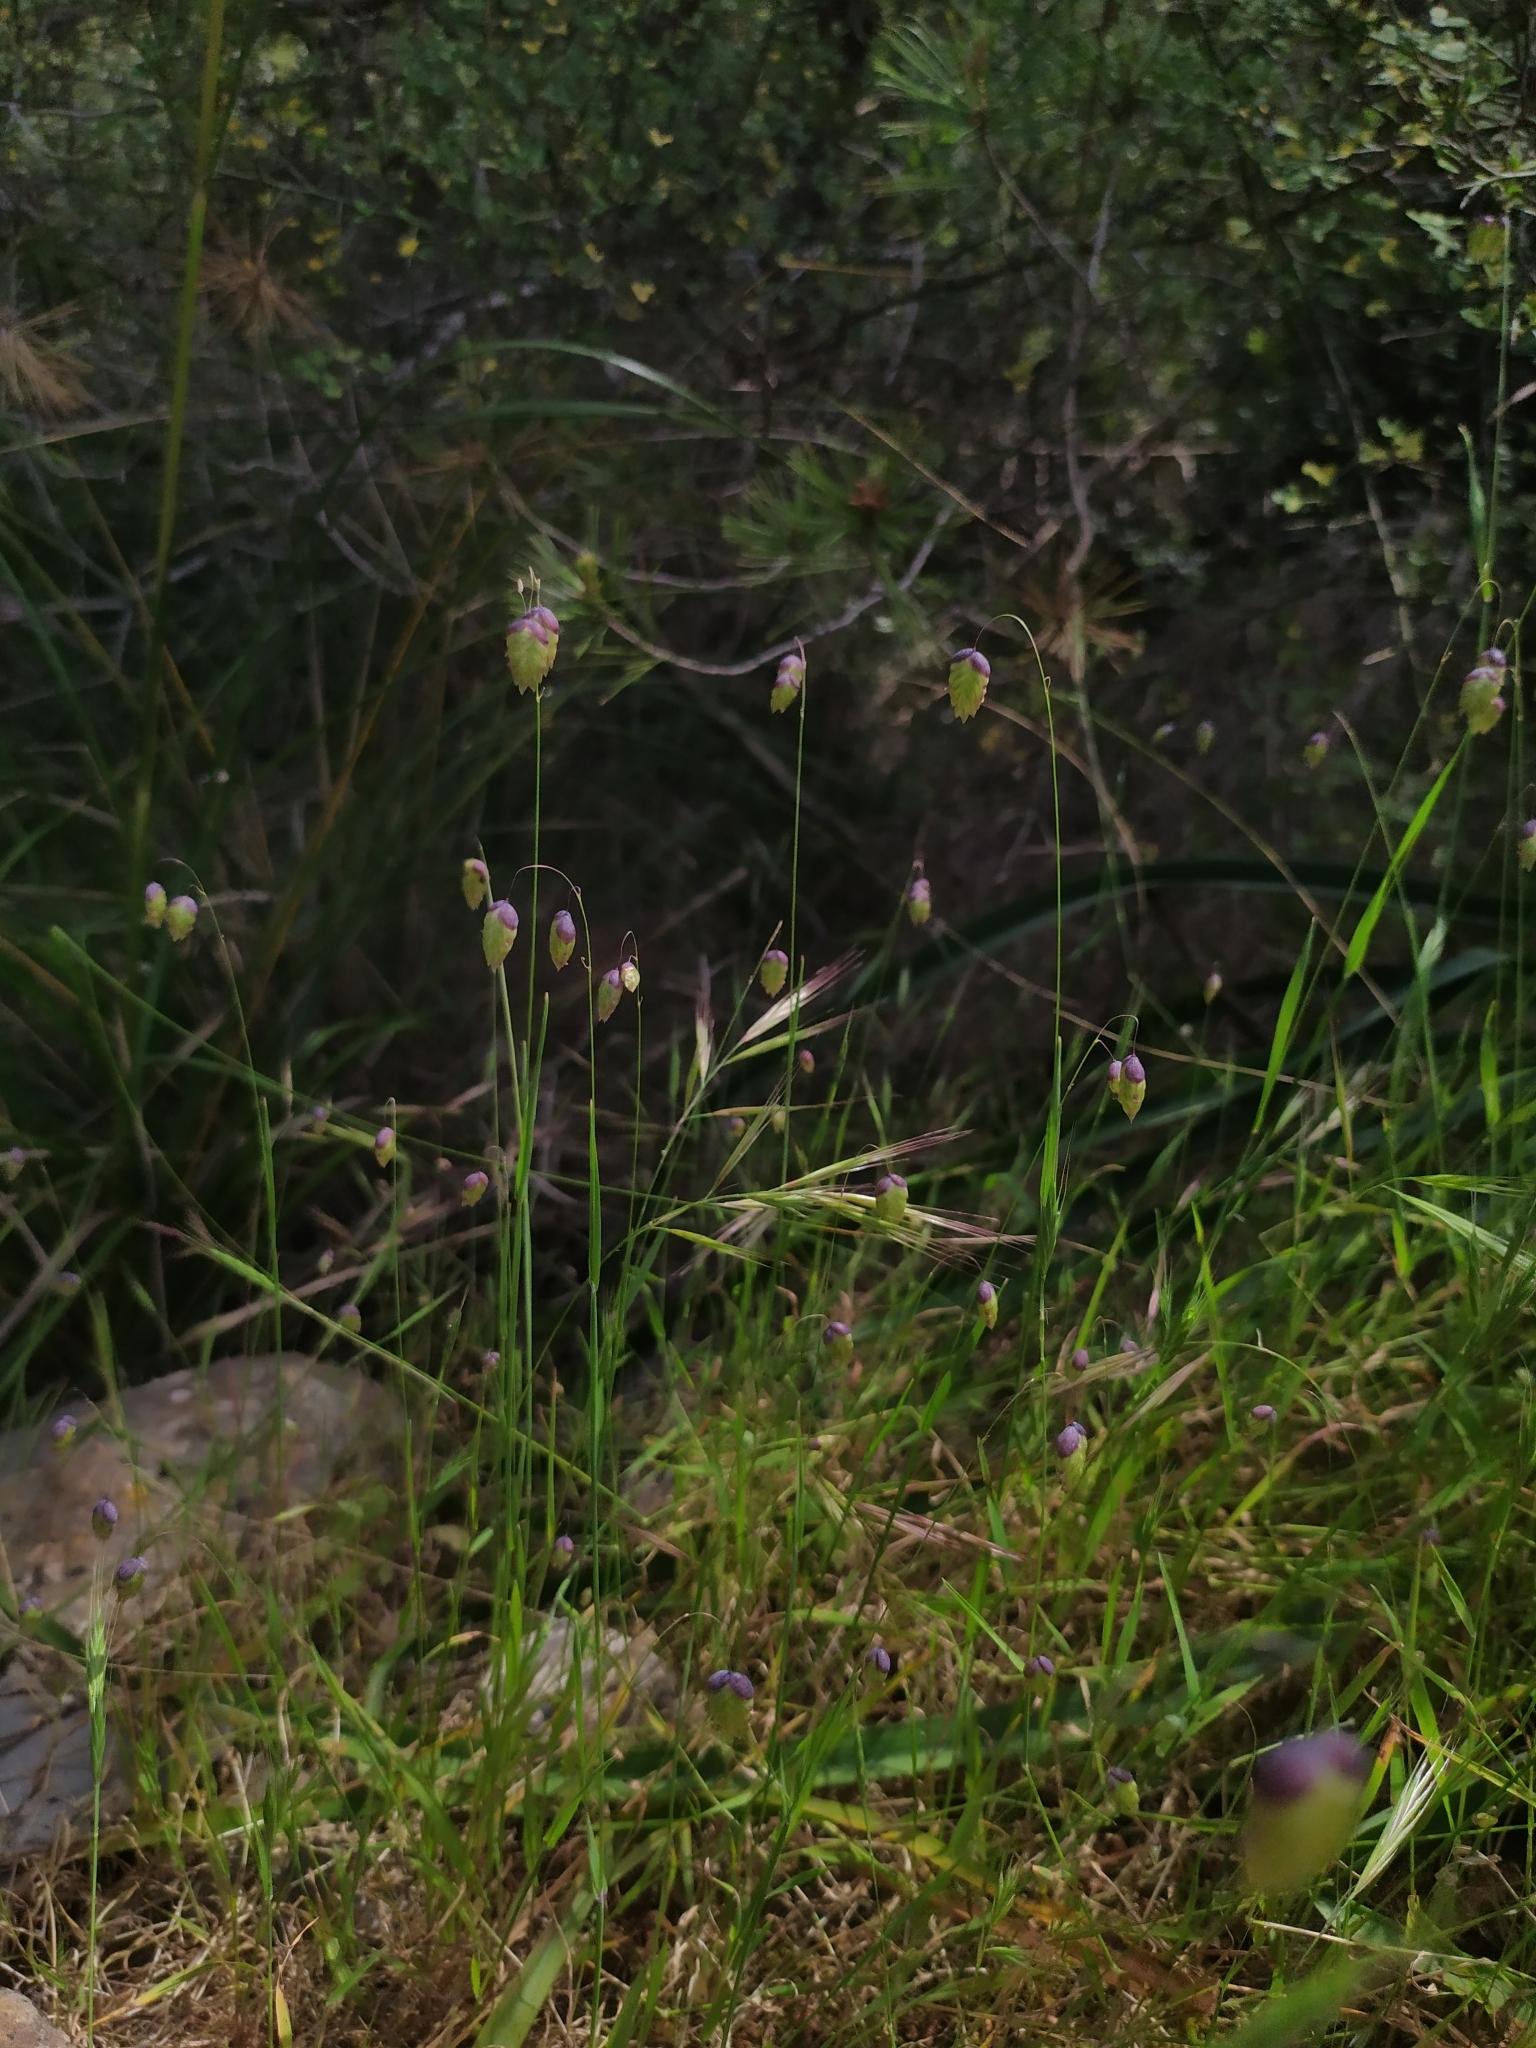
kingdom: Plantae
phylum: Tracheophyta
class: Liliopsida
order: Poales
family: Poaceae
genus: Briza
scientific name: Briza maxima
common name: Big quakinggrass
